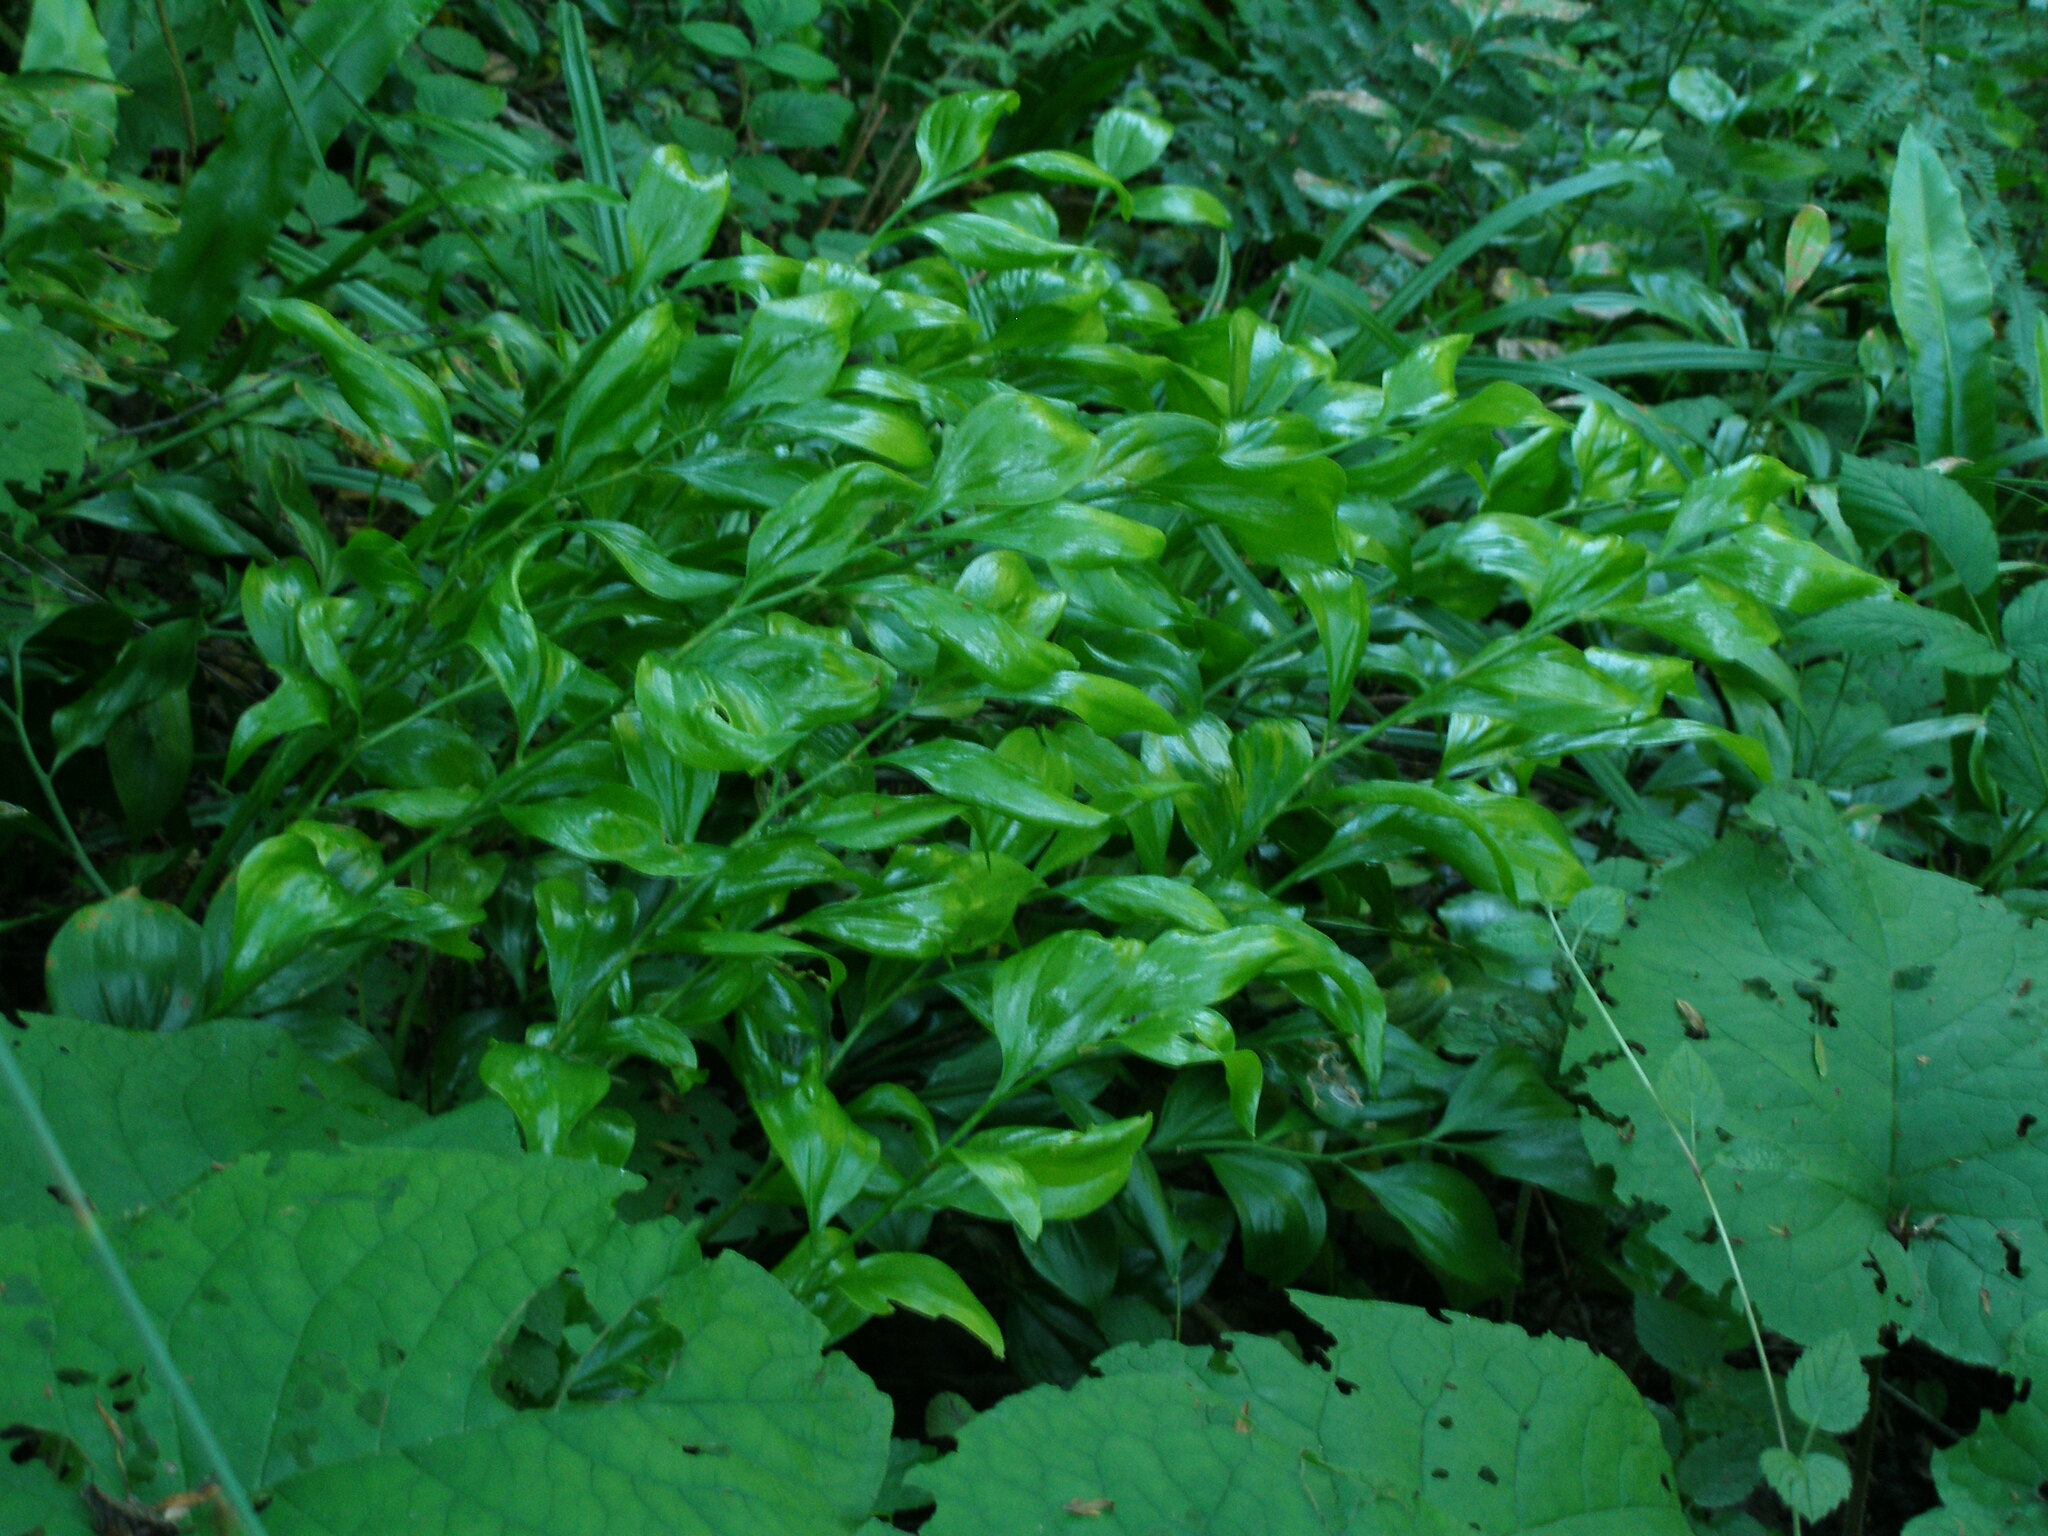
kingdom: Plantae
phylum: Tracheophyta
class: Liliopsida
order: Asparagales
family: Asparagaceae
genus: Ruscus
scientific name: Ruscus colchicus
